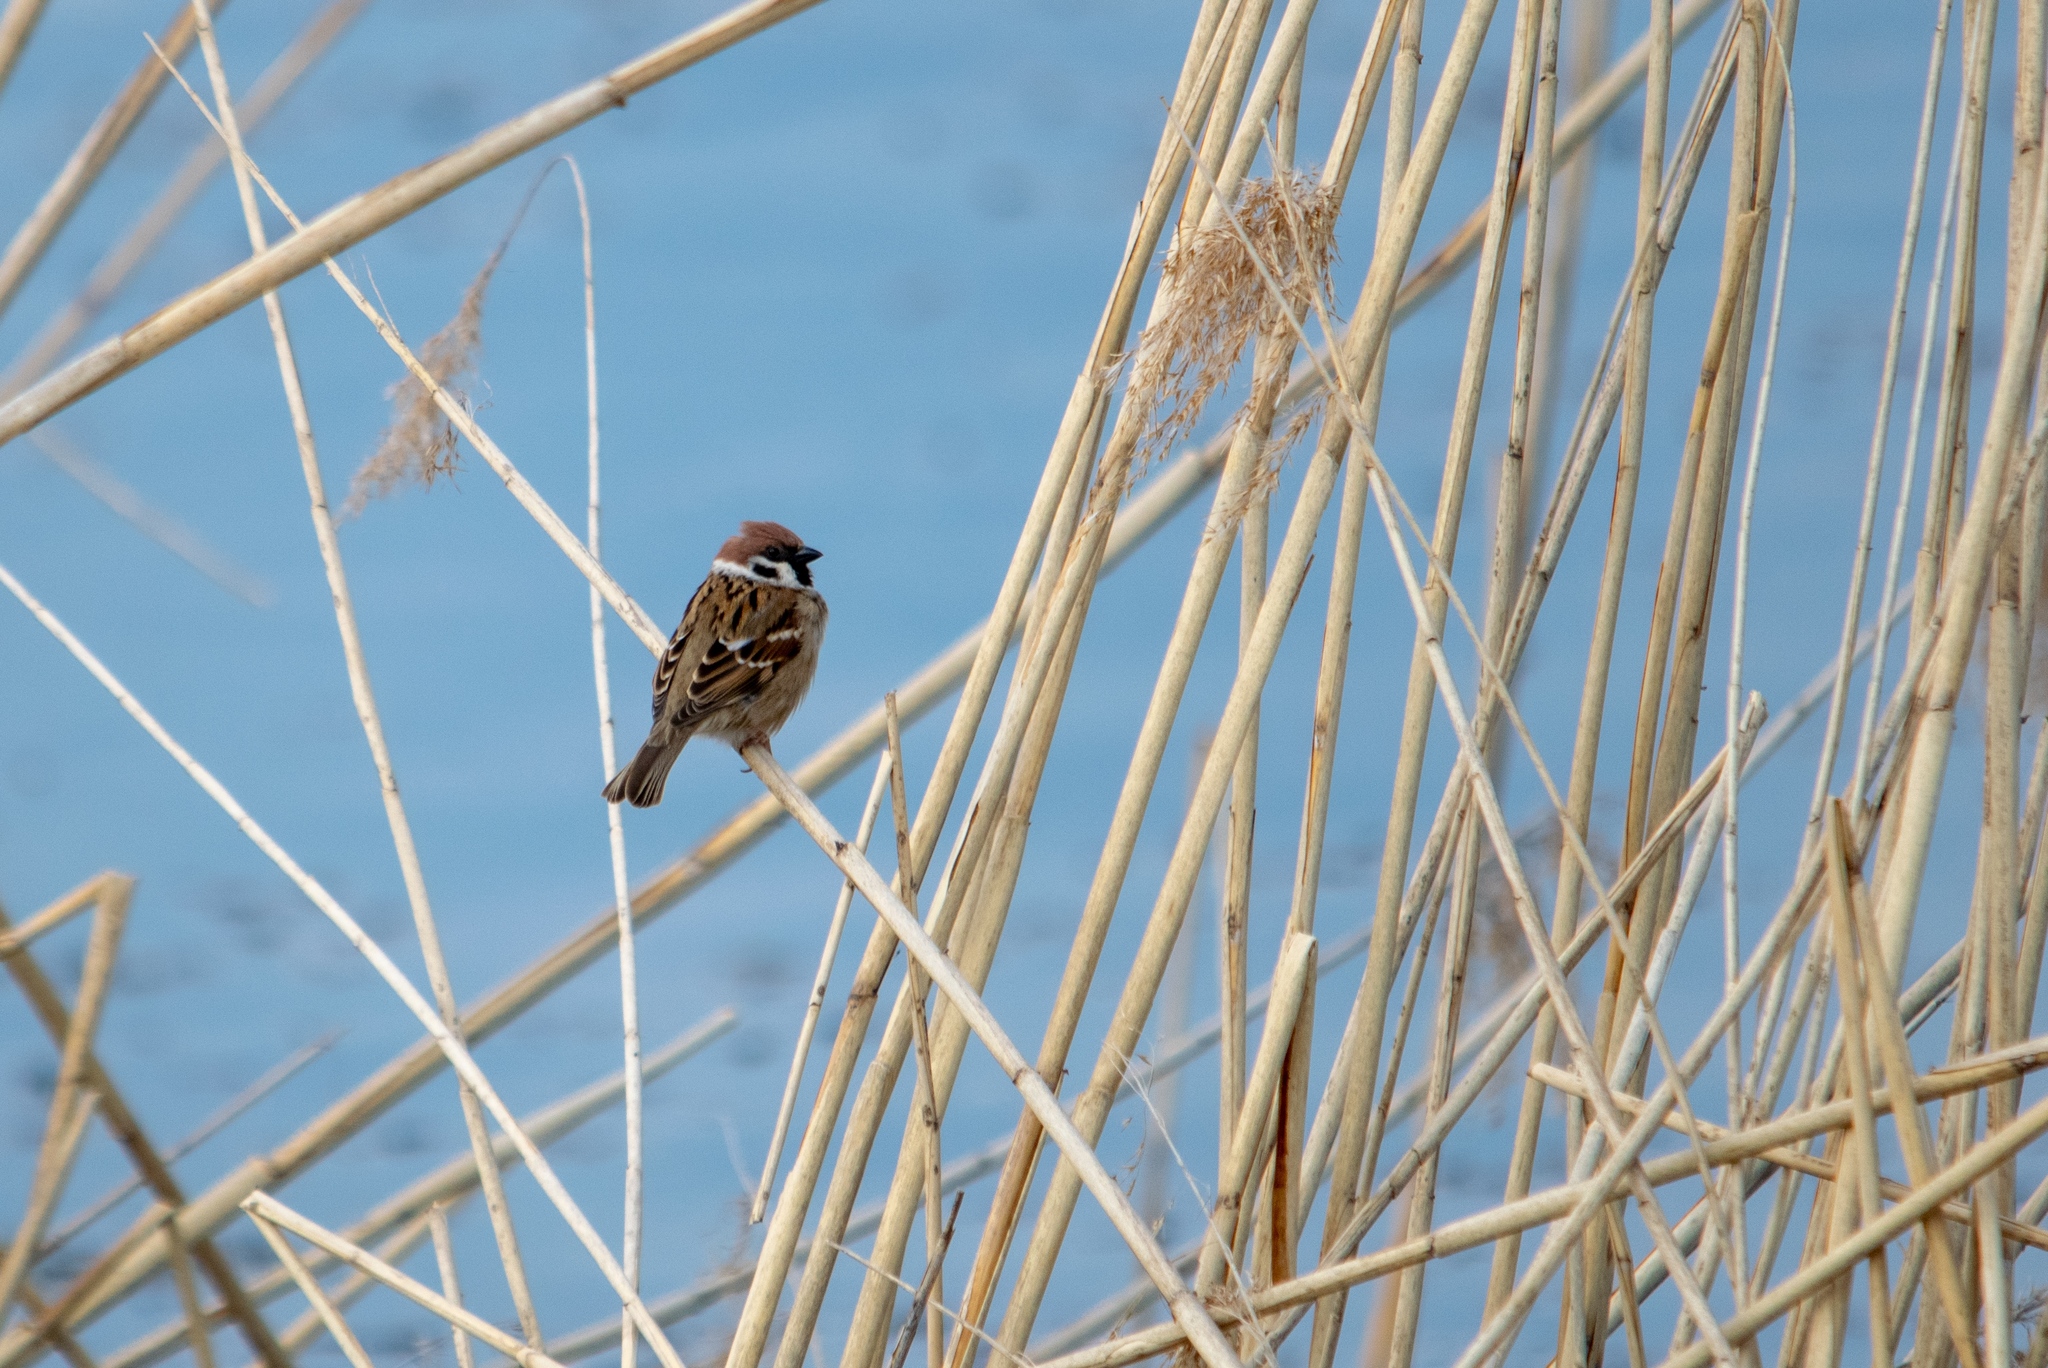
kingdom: Animalia
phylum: Chordata
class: Aves
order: Passeriformes
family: Passeridae
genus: Passer
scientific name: Passer montanus
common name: Eurasian tree sparrow
